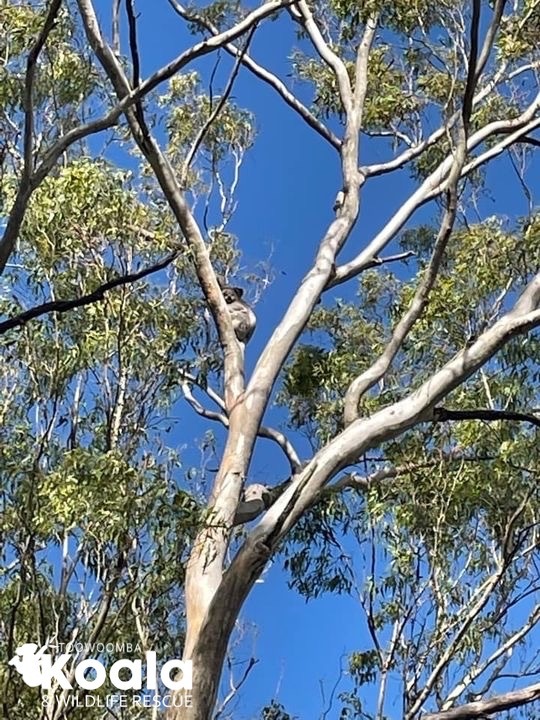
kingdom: Animalia
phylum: Chordata
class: Mammalia
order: Diprotodontia
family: Phascolarctidae
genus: Phascolarctos
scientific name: Phascolarctos cinereus
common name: Koala
